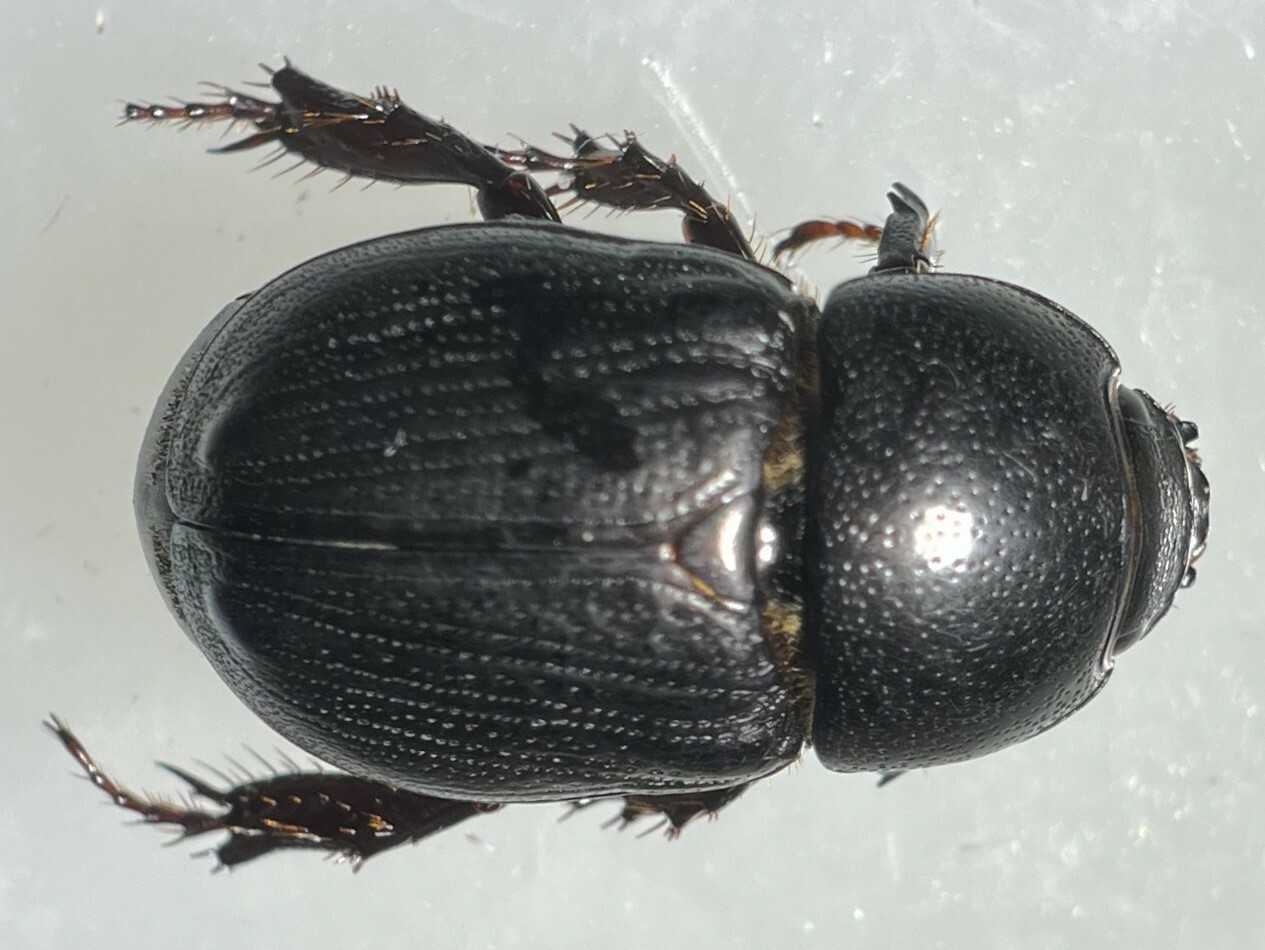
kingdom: Animalia
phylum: Arthropoda
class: Insecta
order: Coleoptera
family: Scarabaeidae
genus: Euetheola
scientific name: Euetheola humilis
